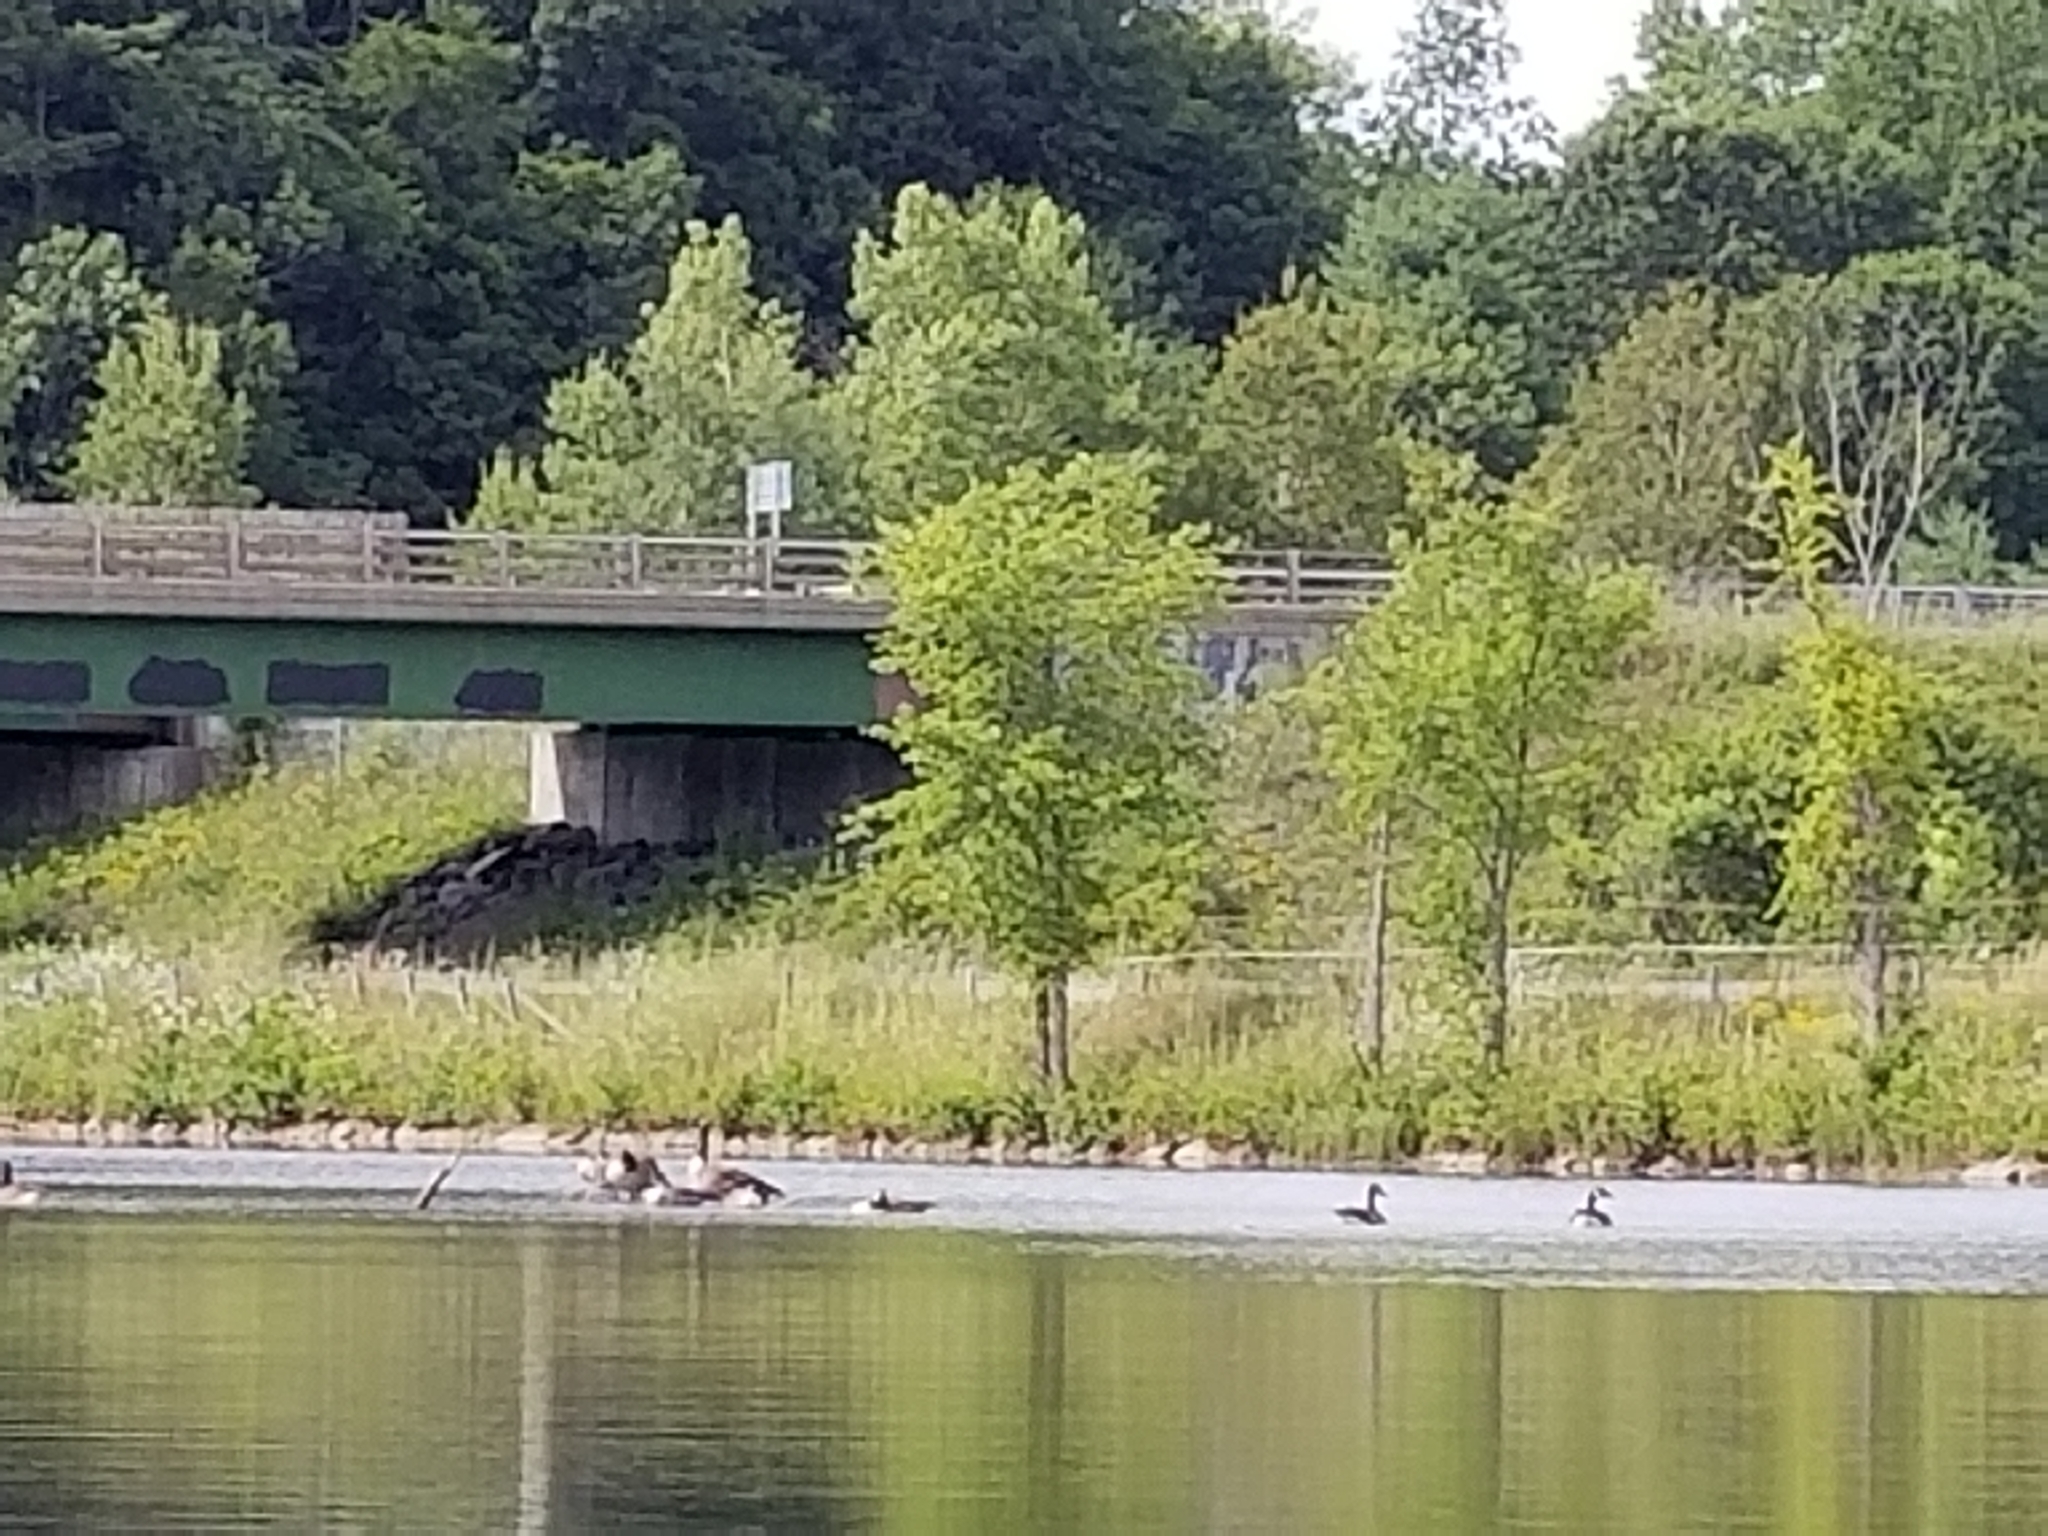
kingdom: Animalia
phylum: Chordata
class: Aves
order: Anseriformes
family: Anatidae
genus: Branta
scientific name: Branta canadensis
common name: Canada goose
